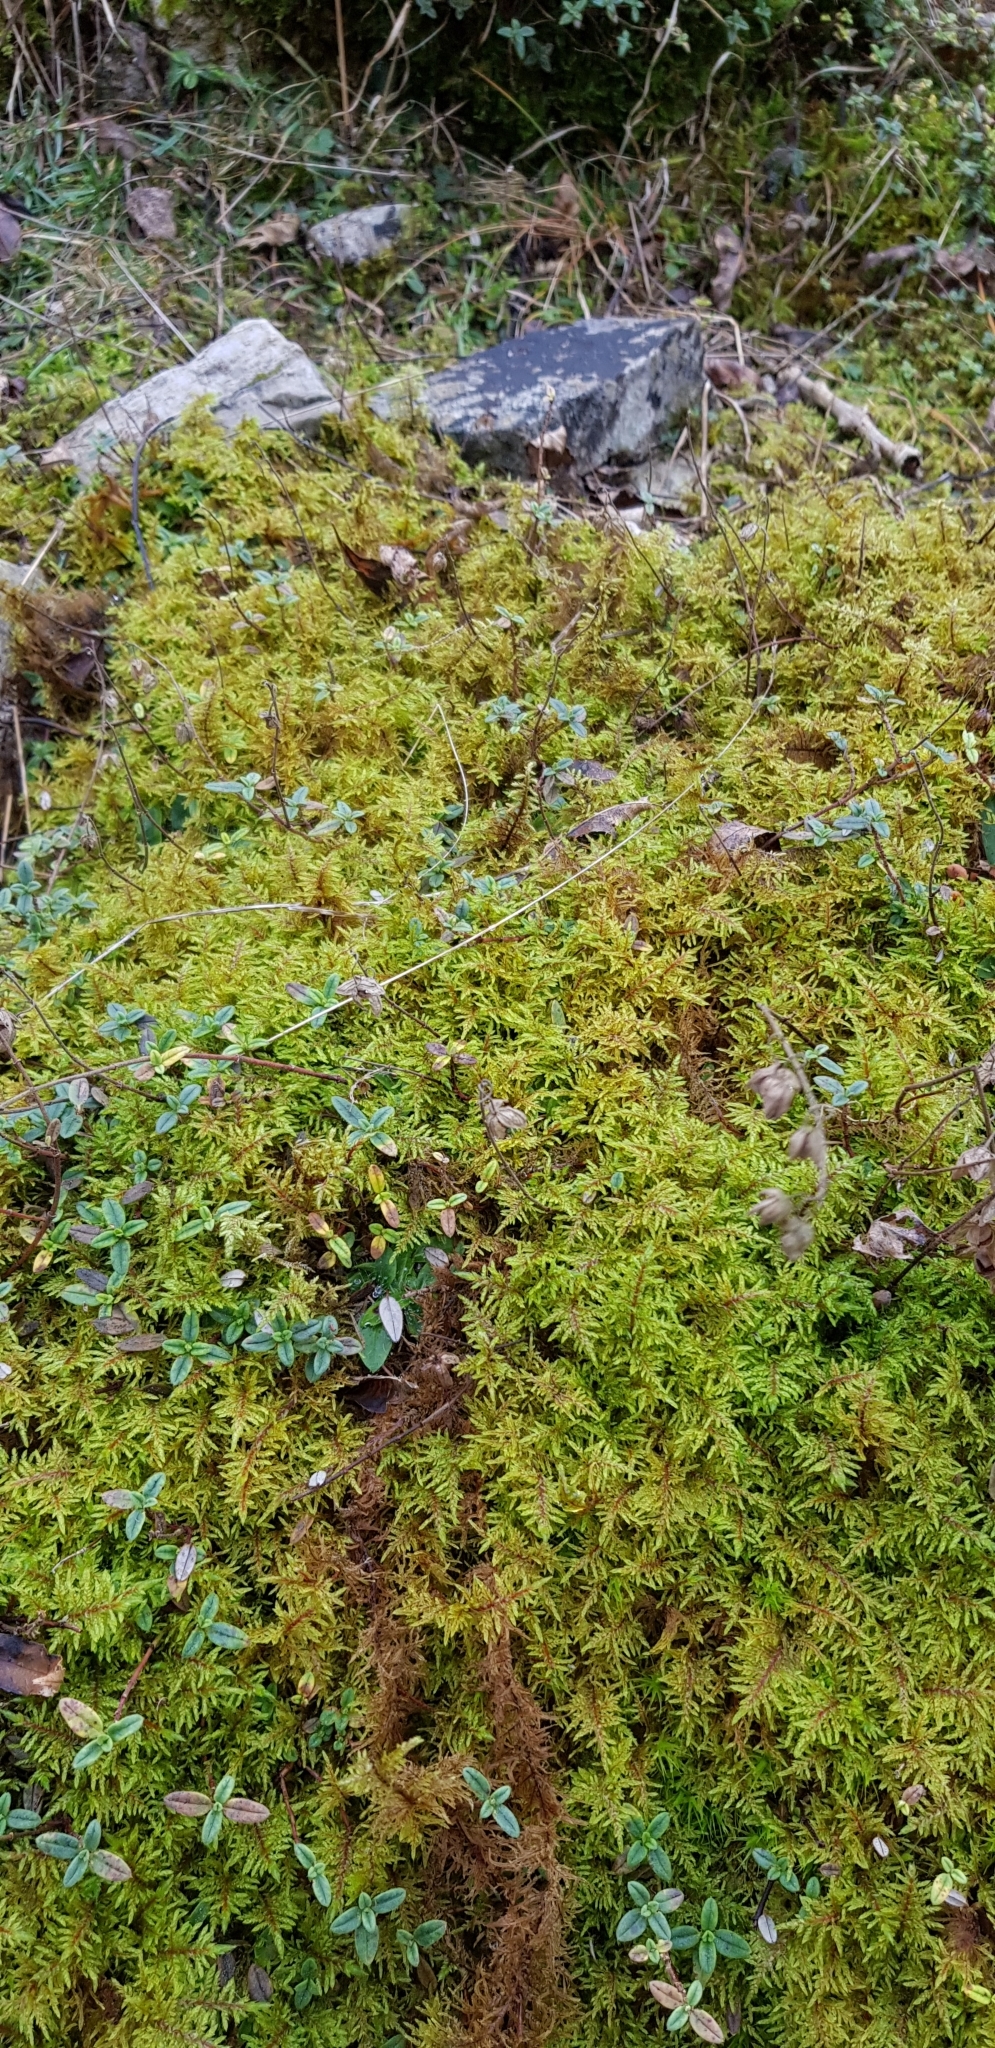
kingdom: Plantae
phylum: Bryophyta
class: Bryopsida
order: Hypnales
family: Hylocomiaceae
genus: Hylocomium
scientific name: Hylocomium splendens
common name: Stairstep moss
